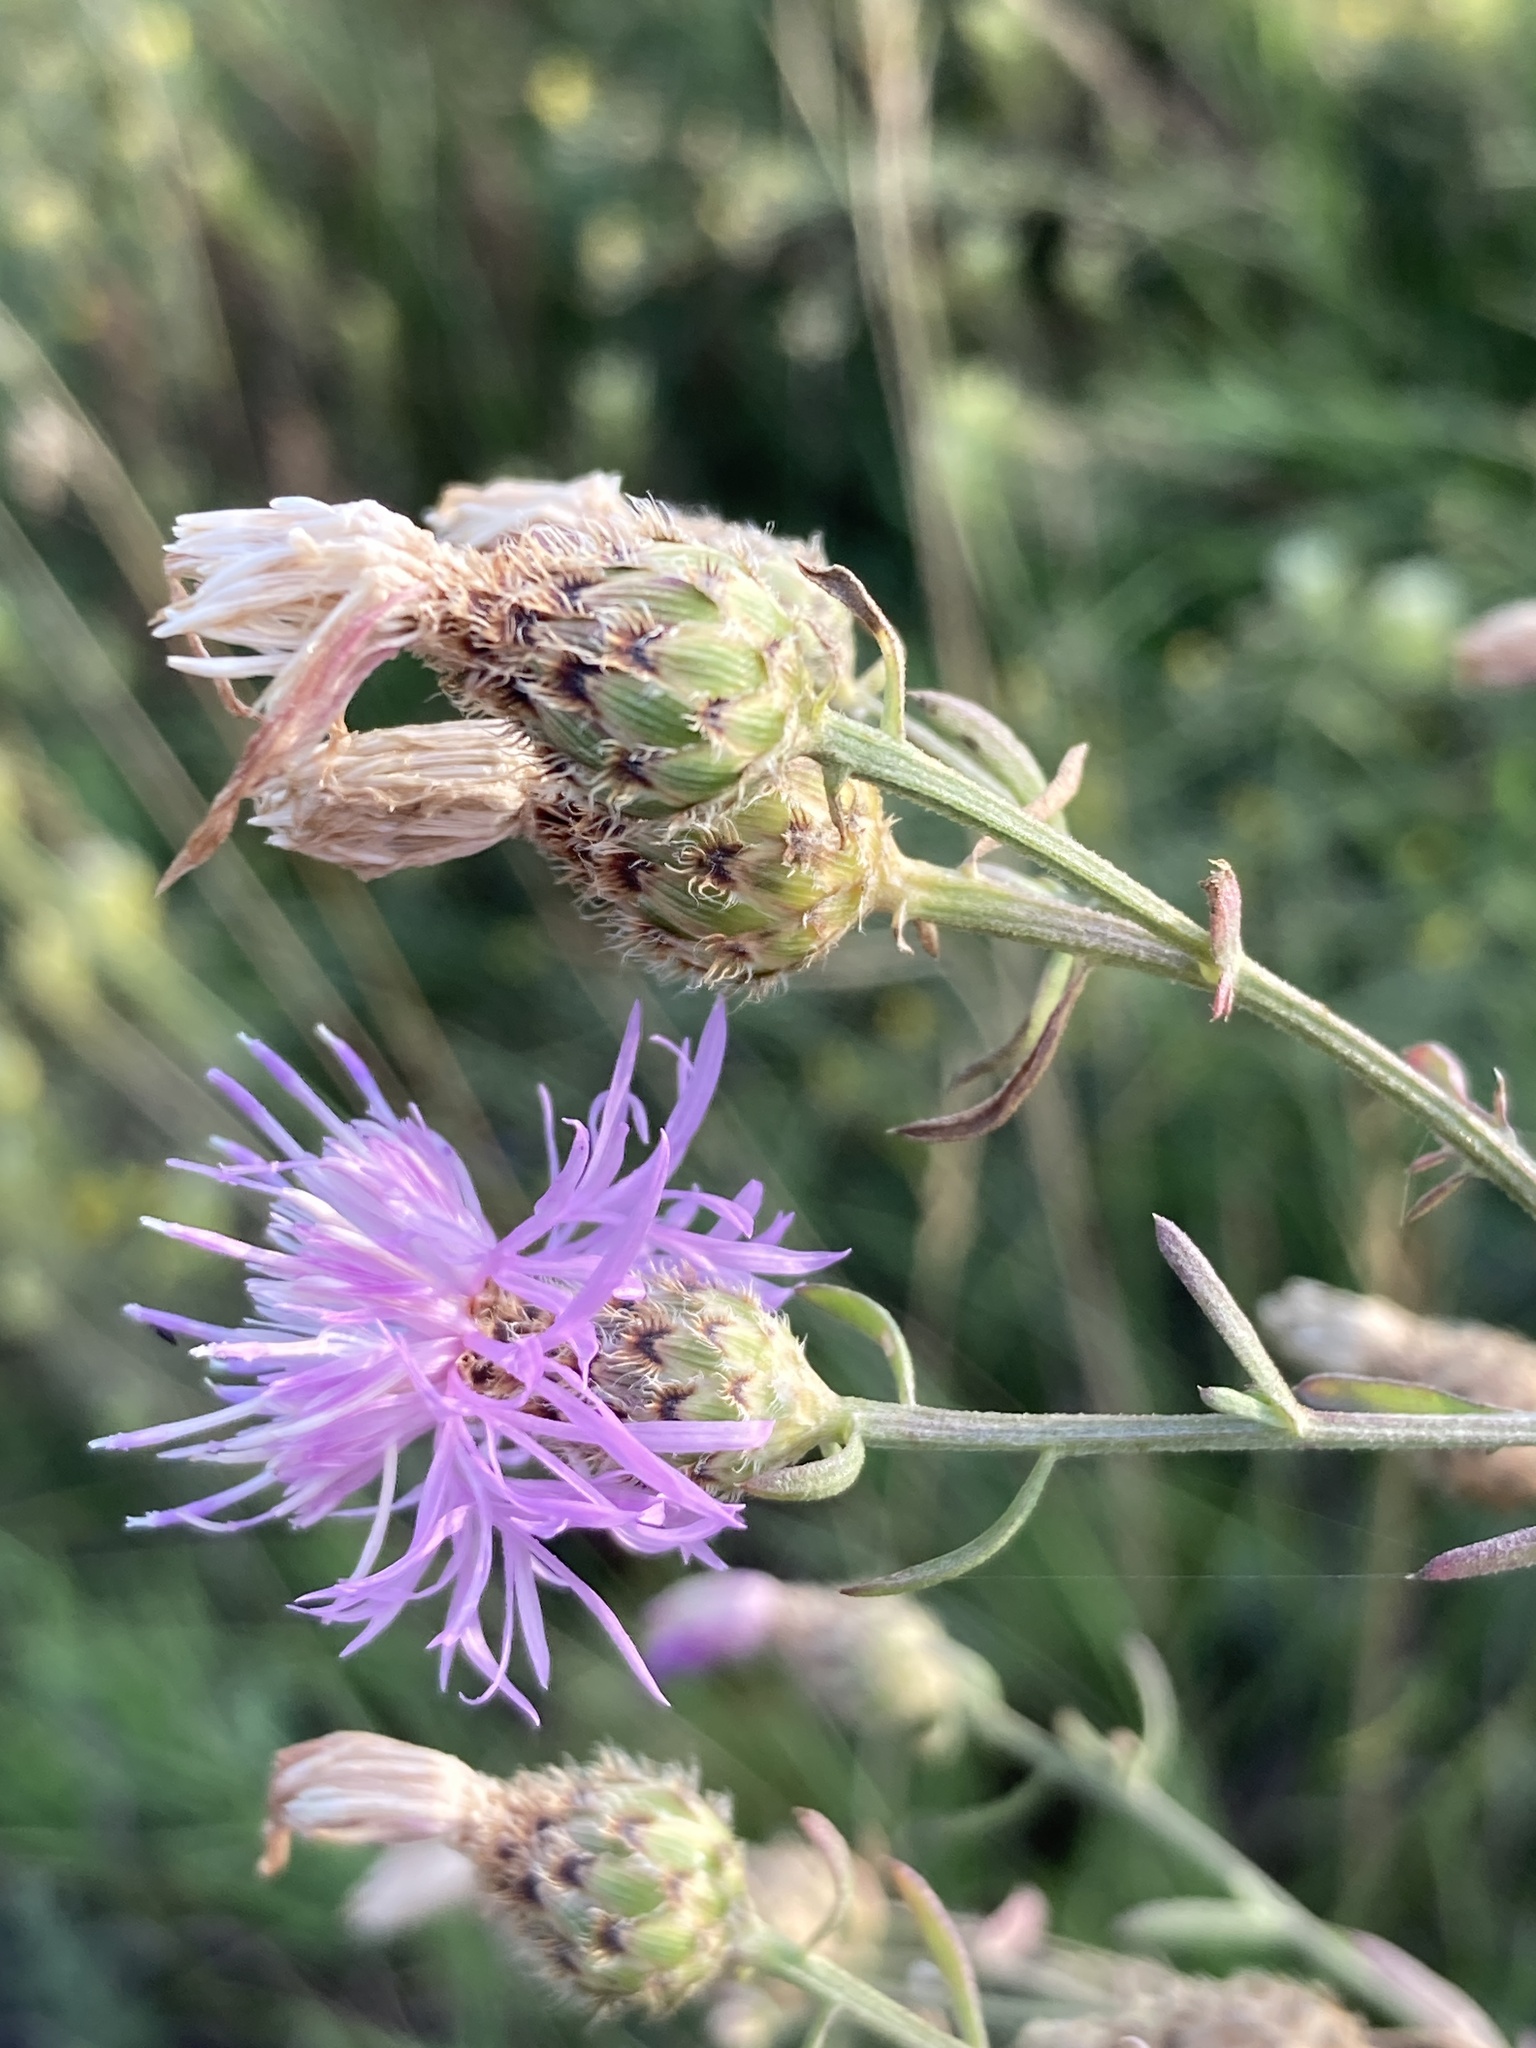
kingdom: Plantae
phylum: Tracheophyta
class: Magnoliopsida
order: Asterales
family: Asteraceae
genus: Centaurea
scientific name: Centaurea stoebe
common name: Spotted knapweed
